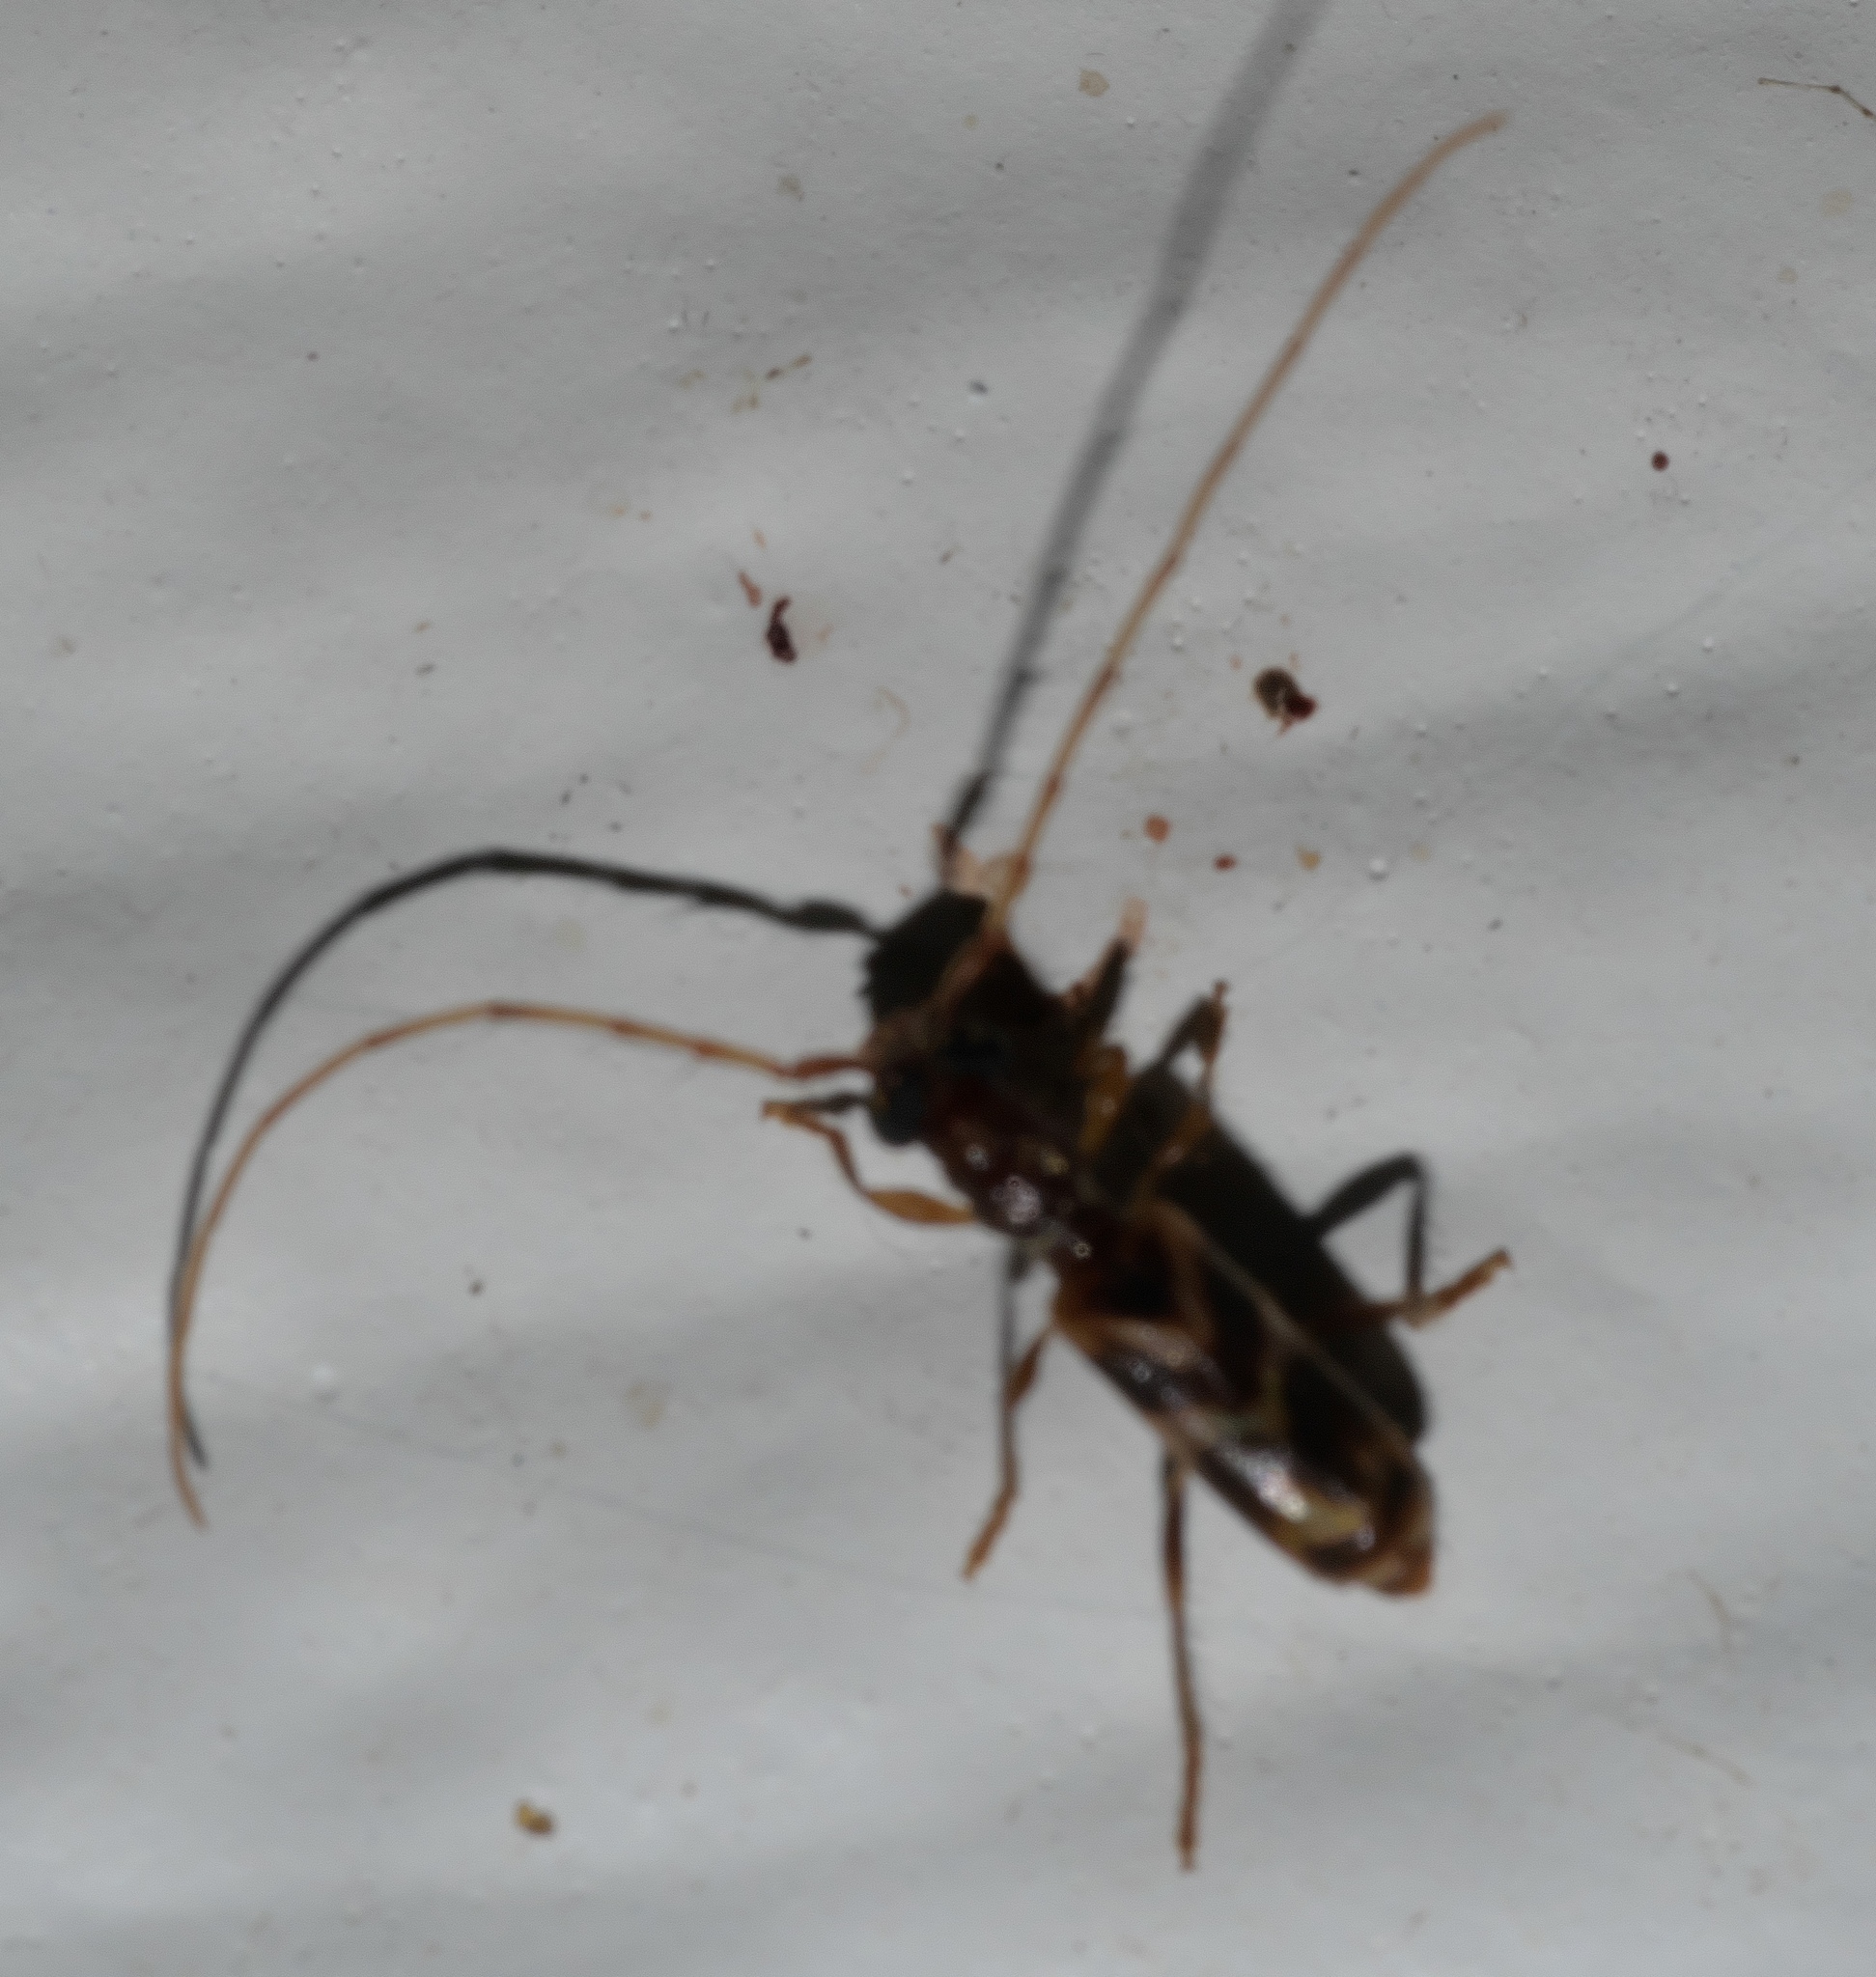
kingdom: Animalia
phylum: Arthropoda
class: Insecta
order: Coleoptera
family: Cerambycidae
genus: Stenhomalus
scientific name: Stenhomalus taiwanus
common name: Taiwan slender longhorned beetle
